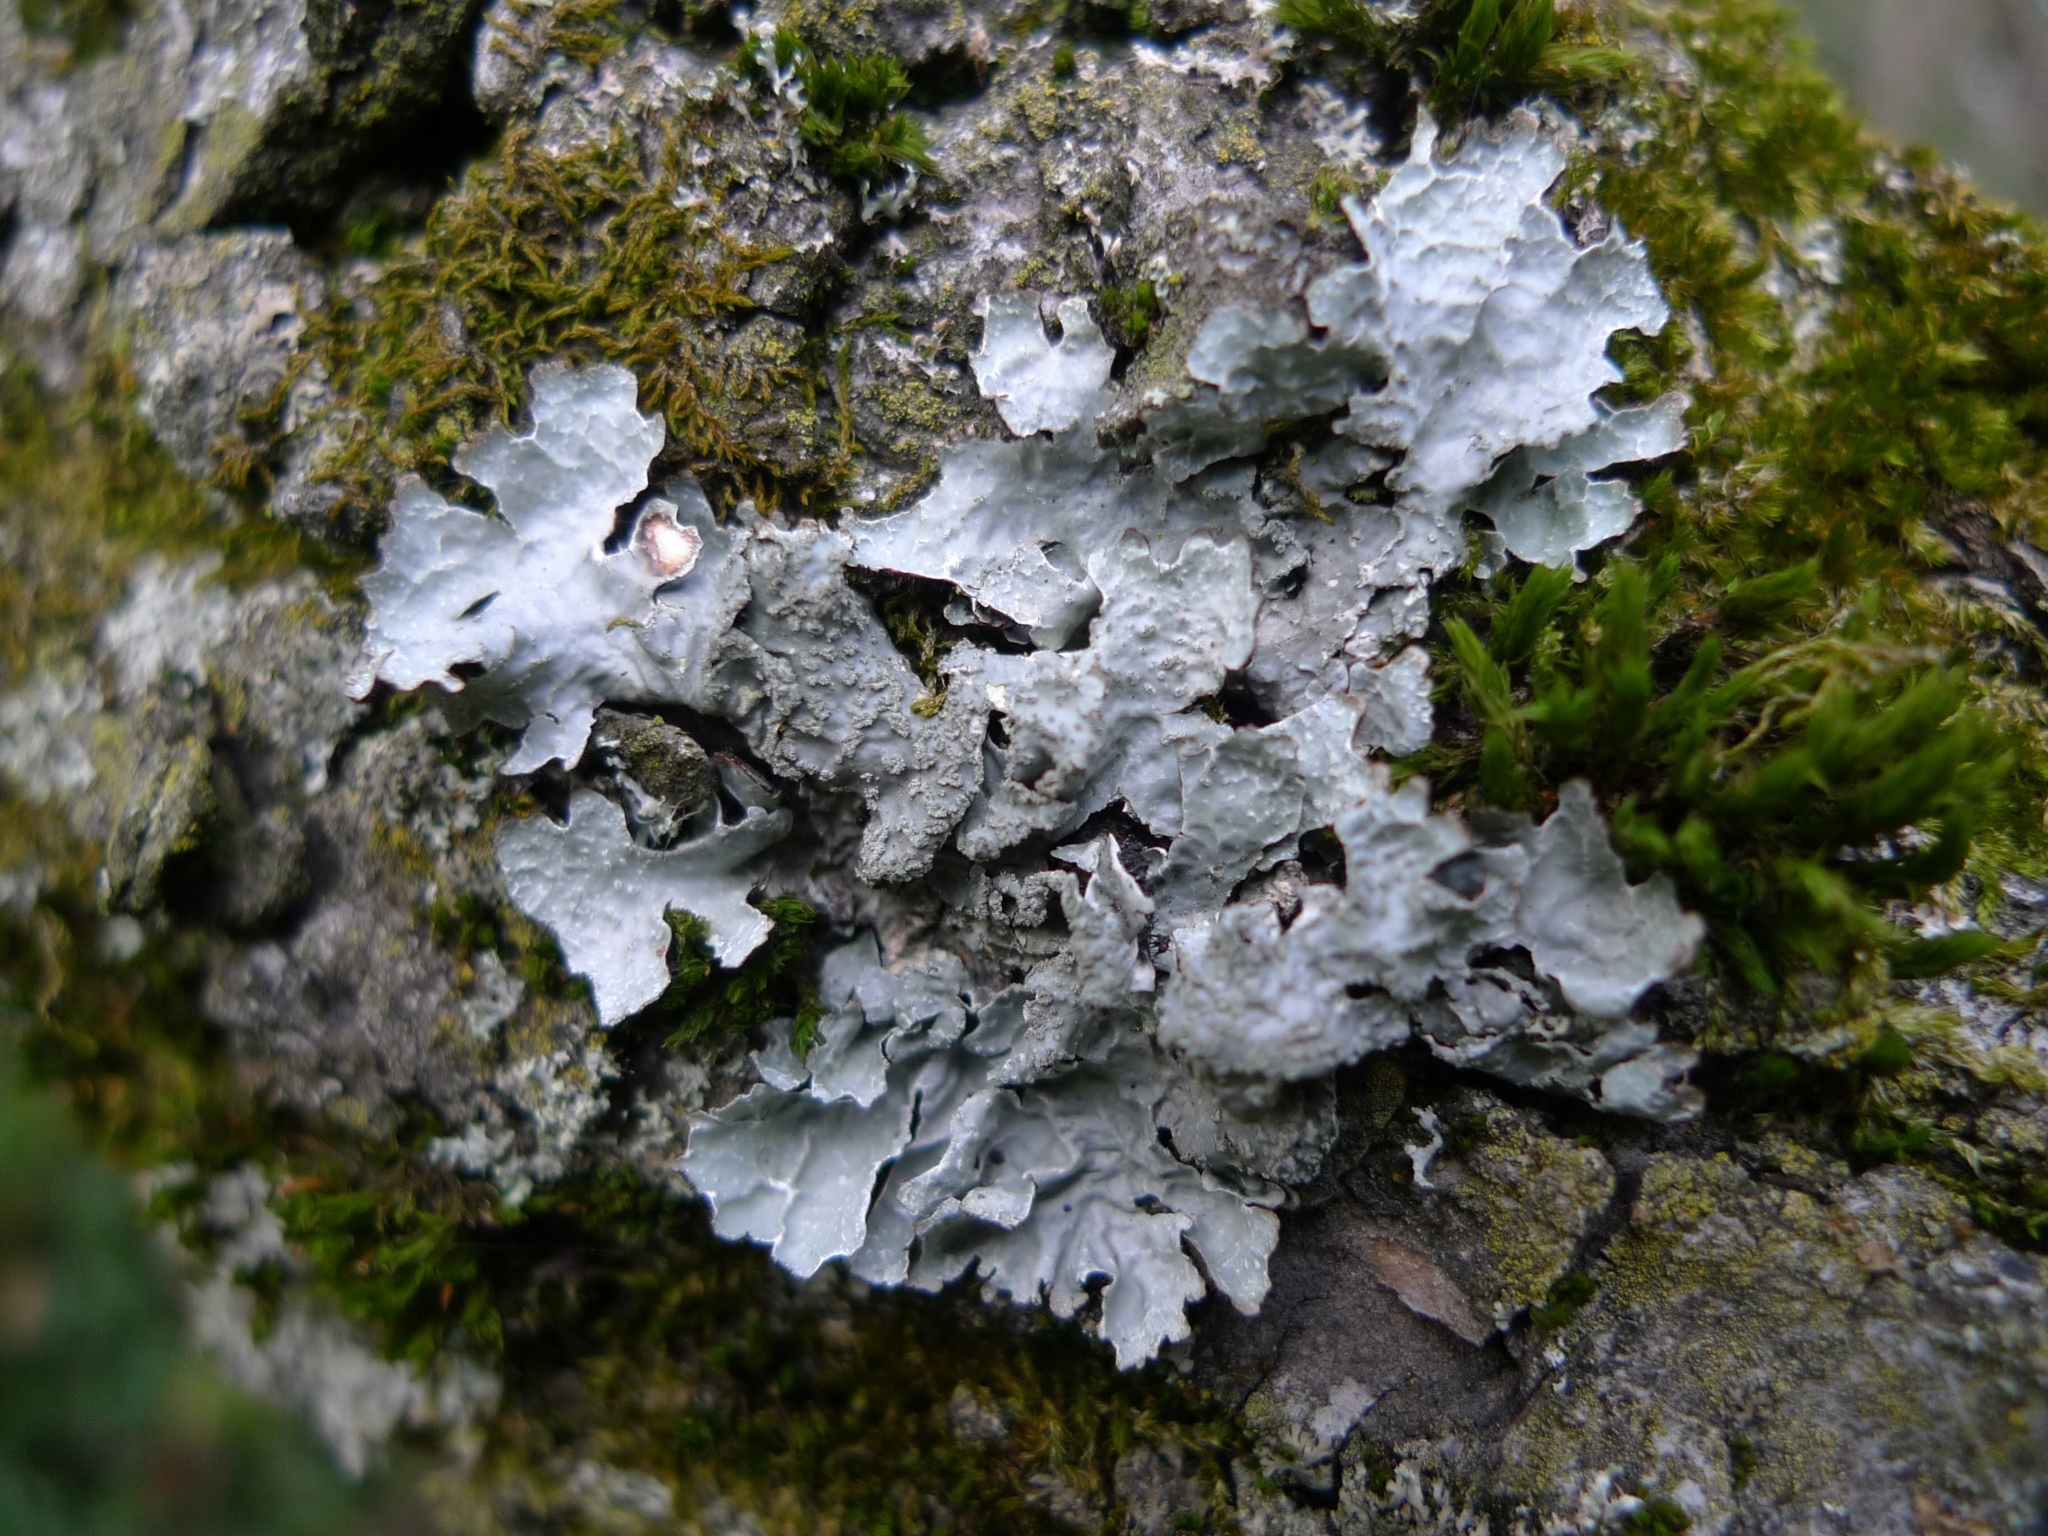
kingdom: Fungi
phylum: Ascomycota
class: Lecanoromycetes
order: Lecanorales
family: Parmeliaceae
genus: Parmelia
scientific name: Parmelia sulcata
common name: Netted shield lichen
